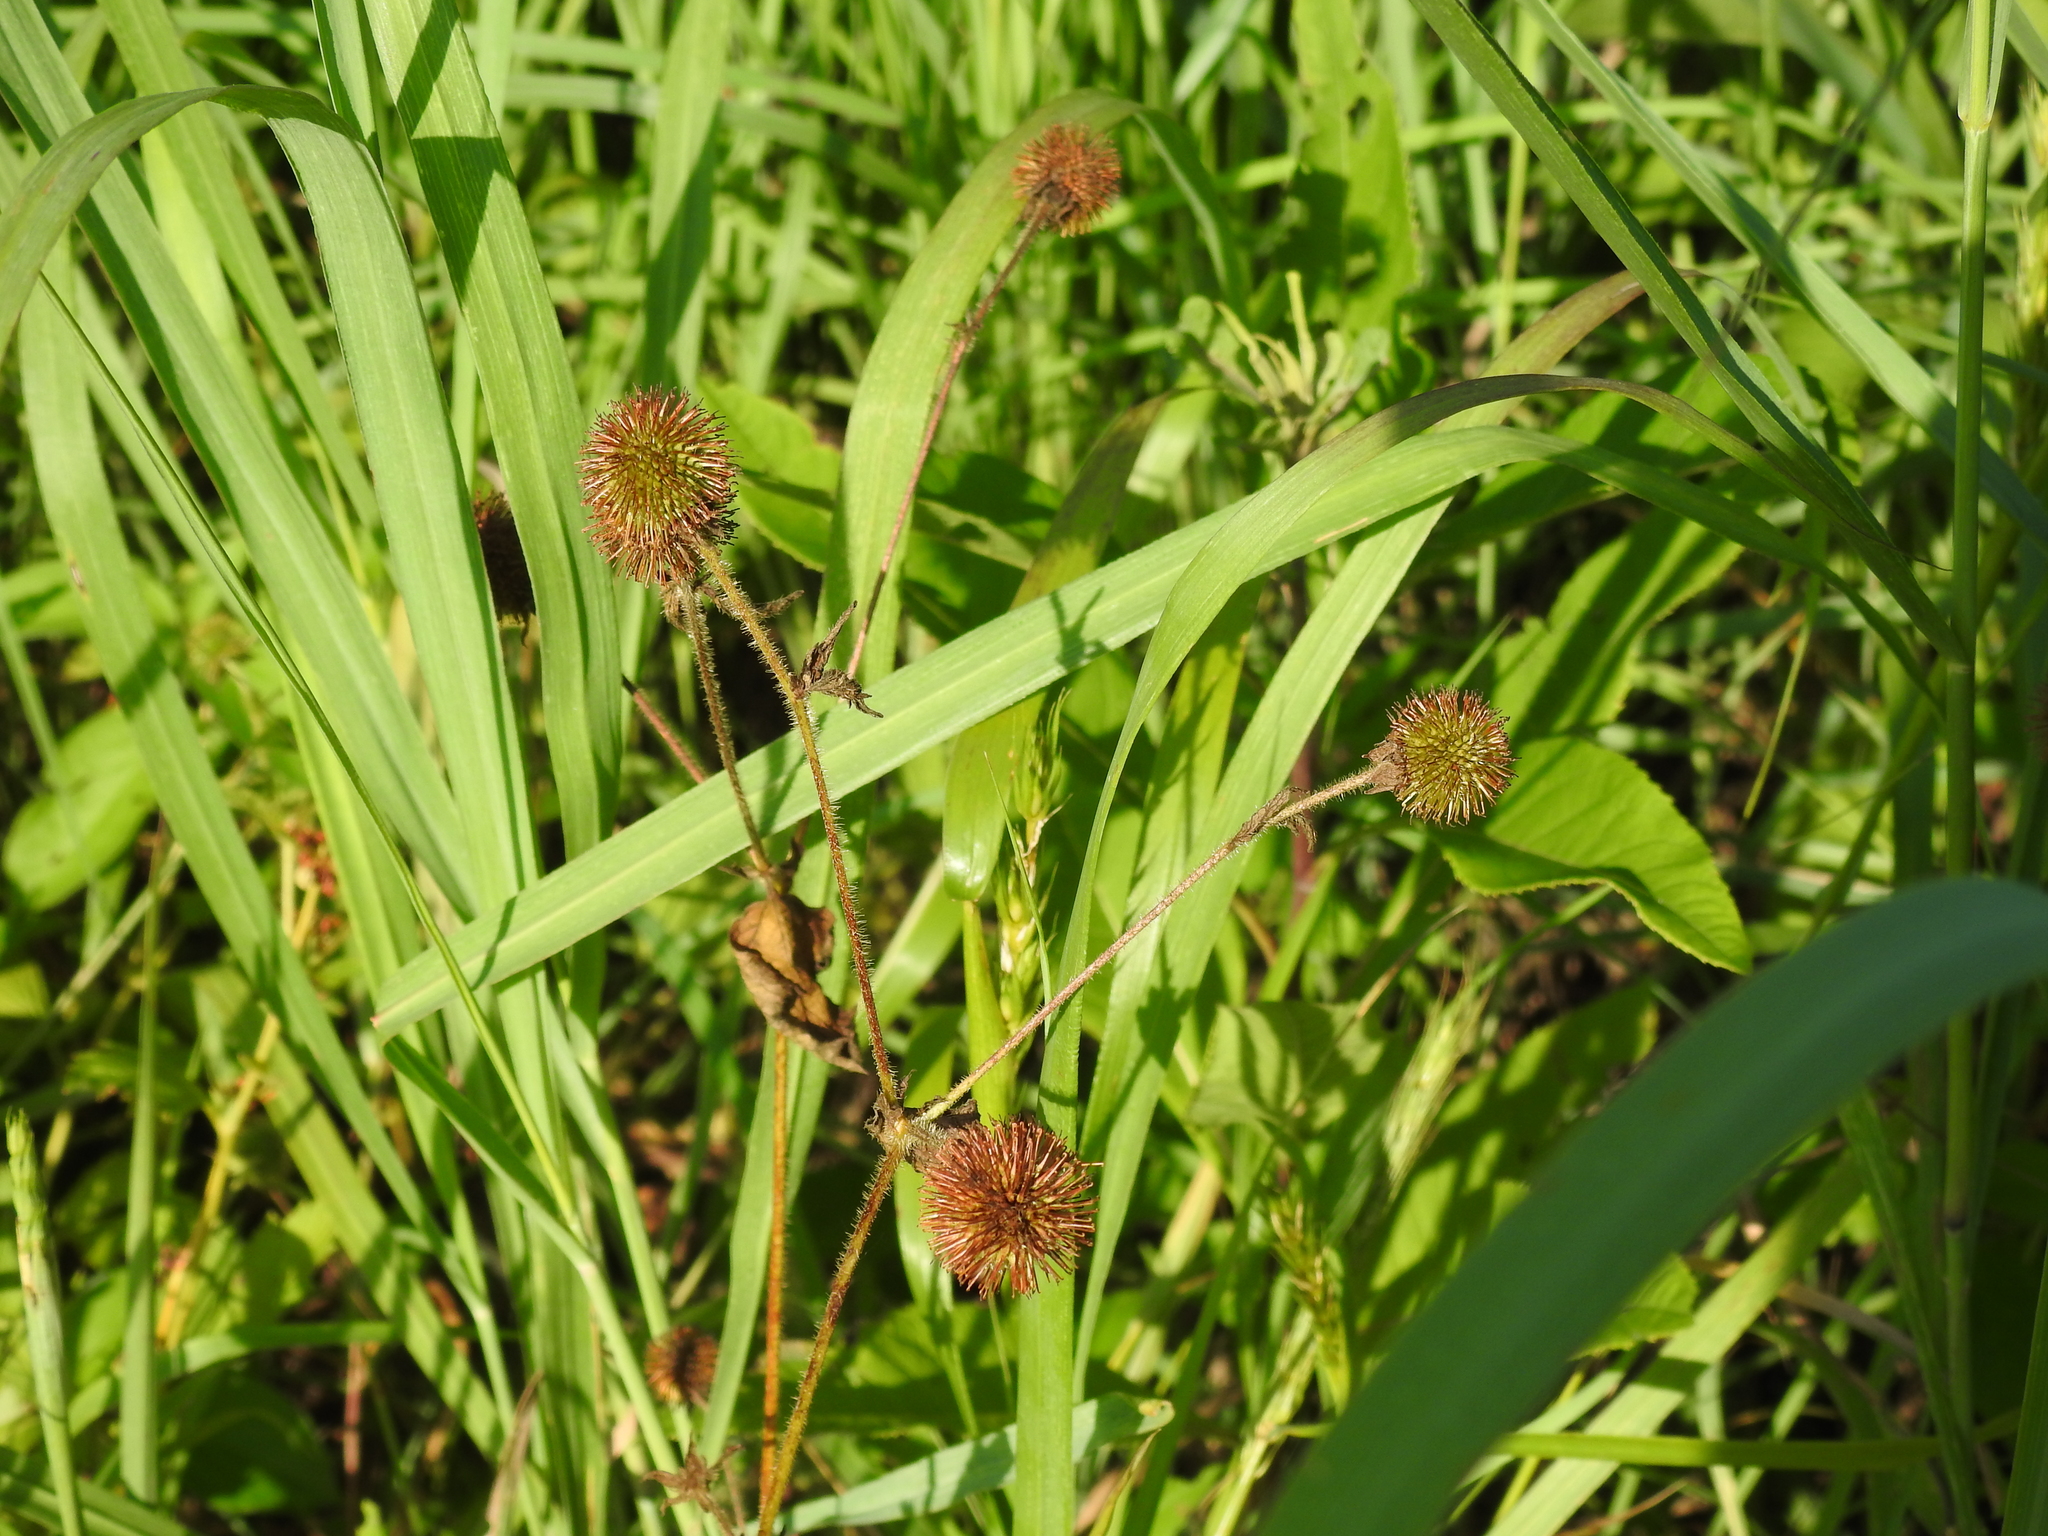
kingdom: Plantae
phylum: Tracheophyta
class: Magnoliopsida
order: Rosales
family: Rosaceae
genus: Geum
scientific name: Geum laciniatum
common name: Rough avens
